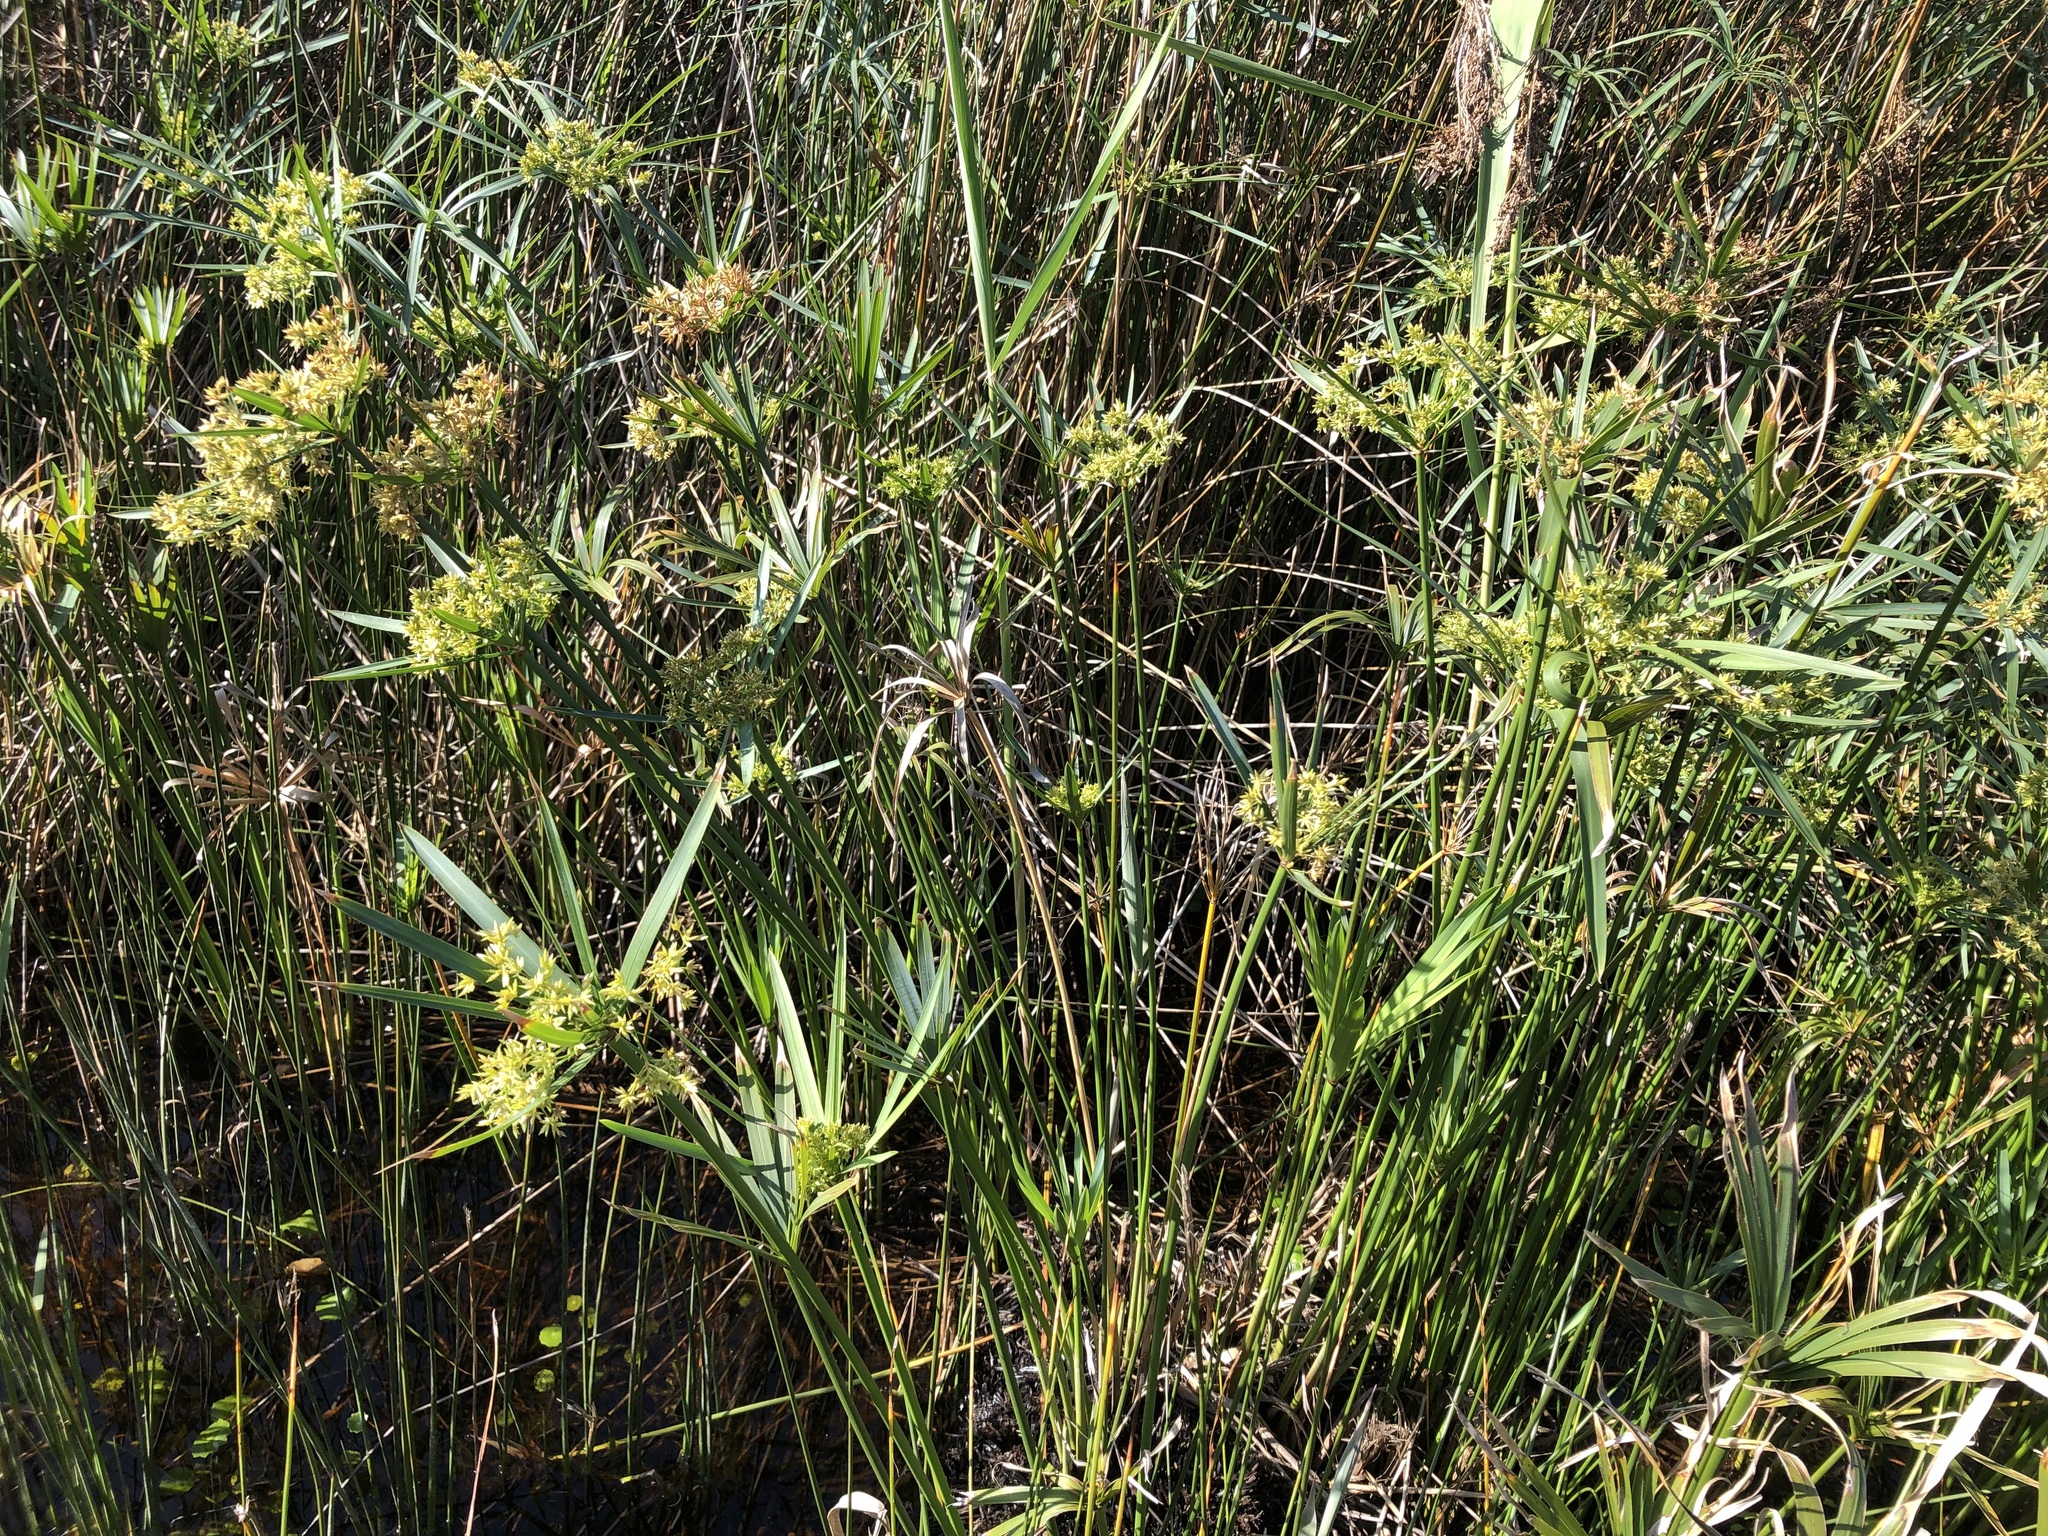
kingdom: Plantae
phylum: Tracheophyta
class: Liliopsida
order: Poales
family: Cyperaceae
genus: Cyperus
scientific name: Cyperus textilis
